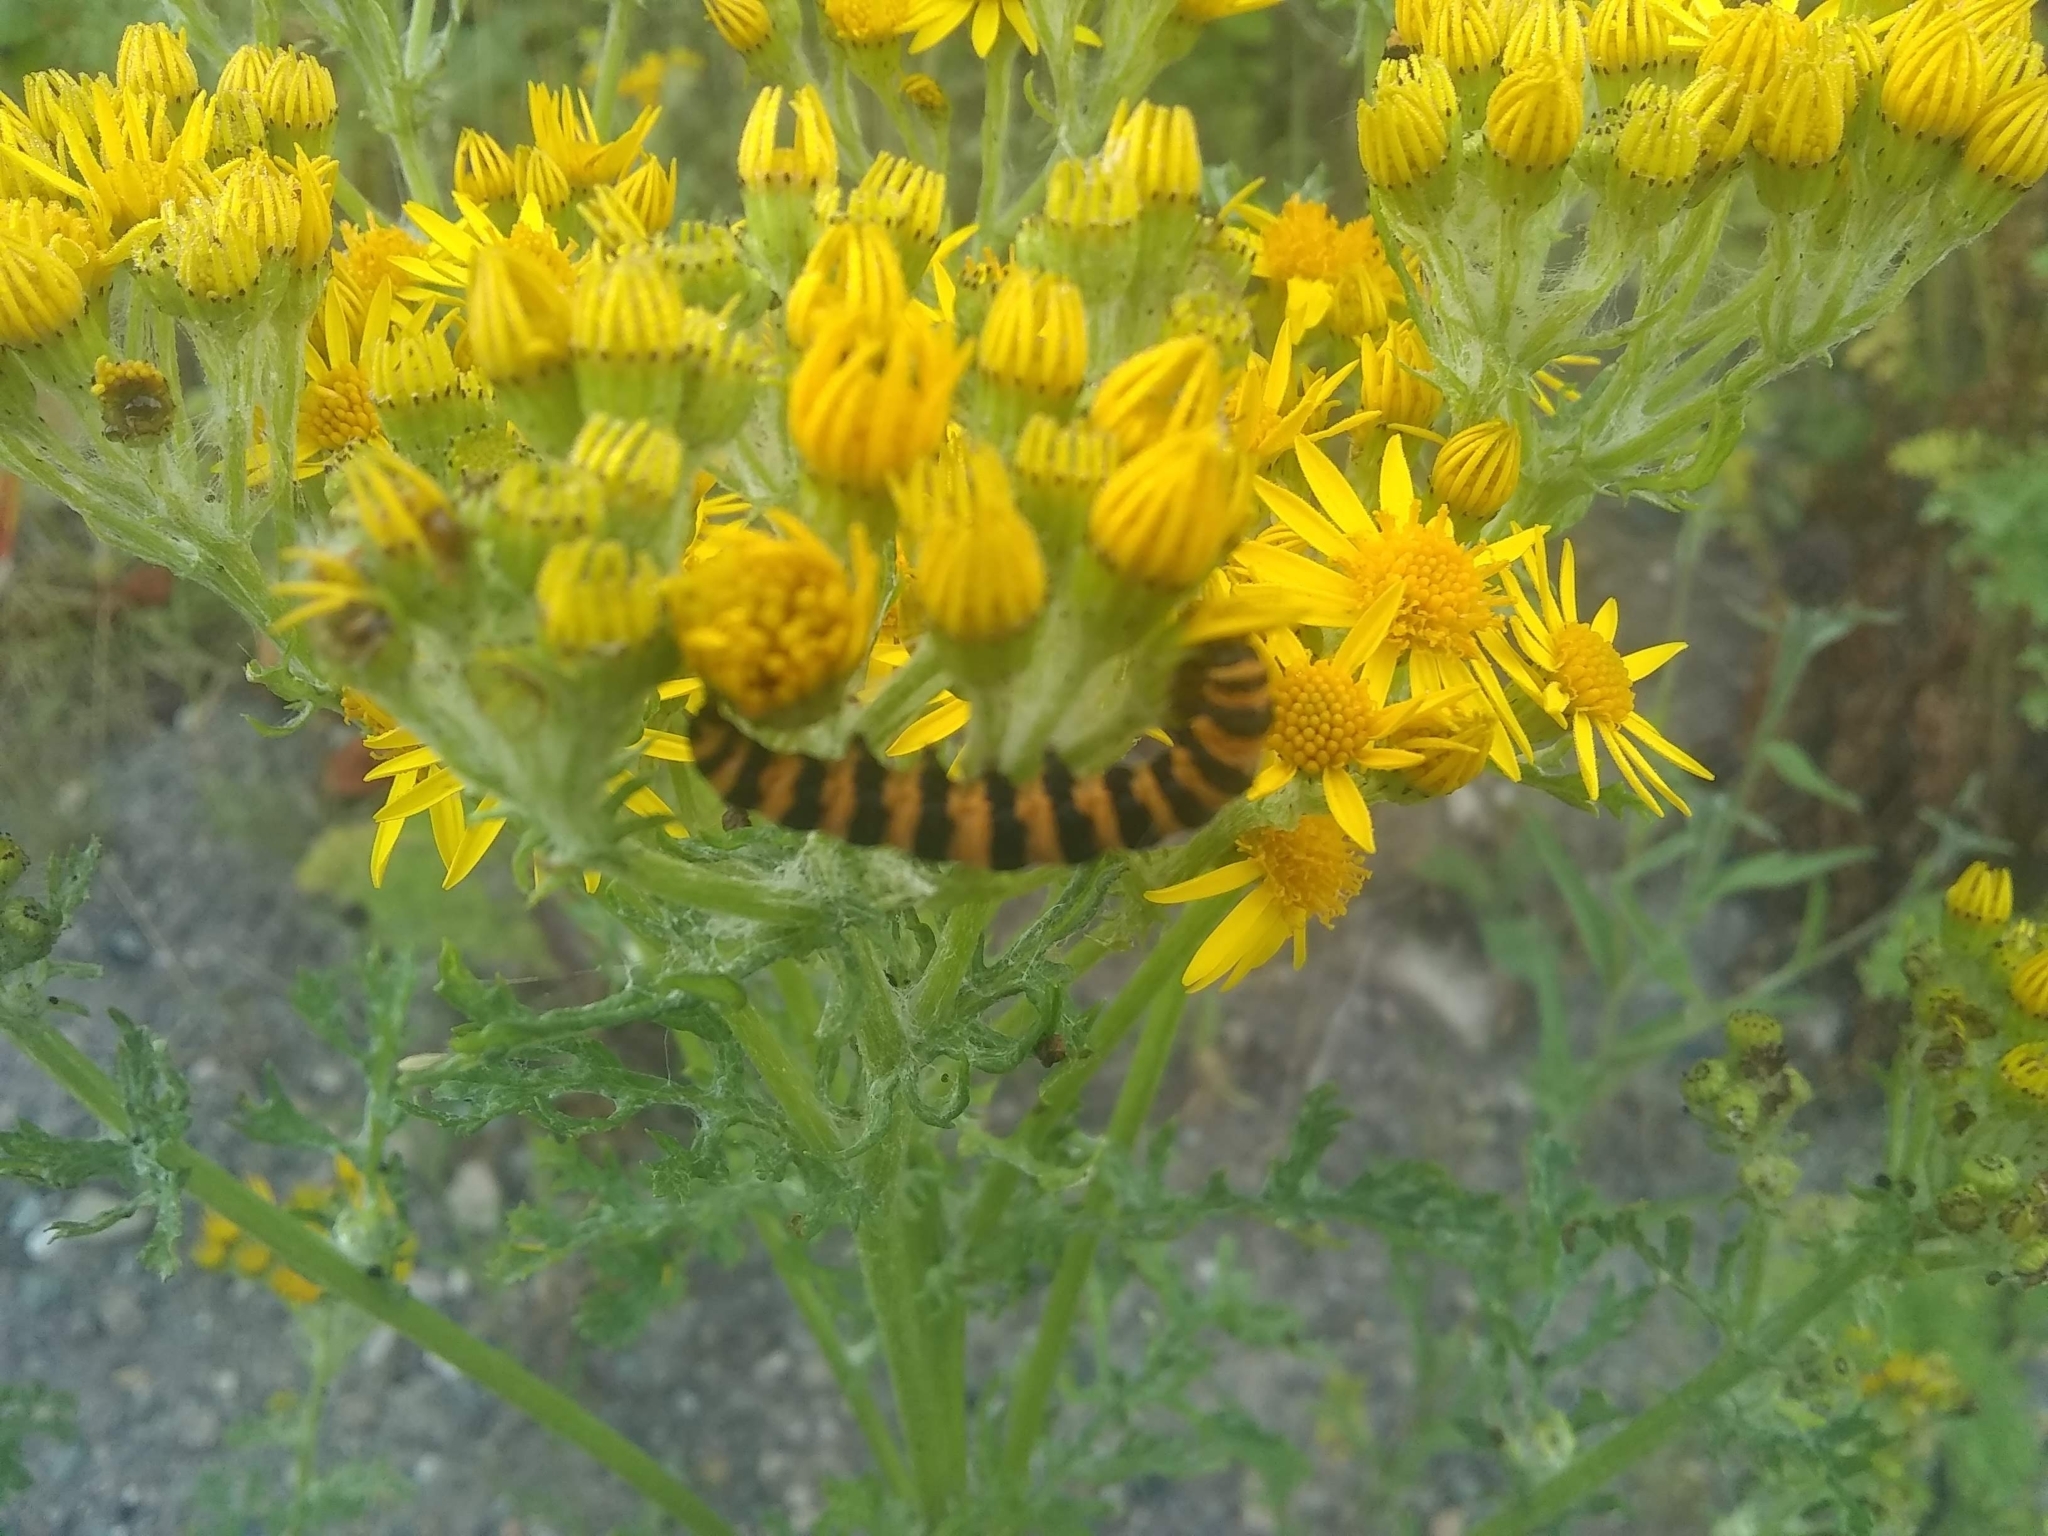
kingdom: Animalia
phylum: Arthropoda
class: Insecta
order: Lepidoptera
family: Erebidae
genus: Tyria
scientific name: Tyria jacobaeae
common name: Cinnabar
